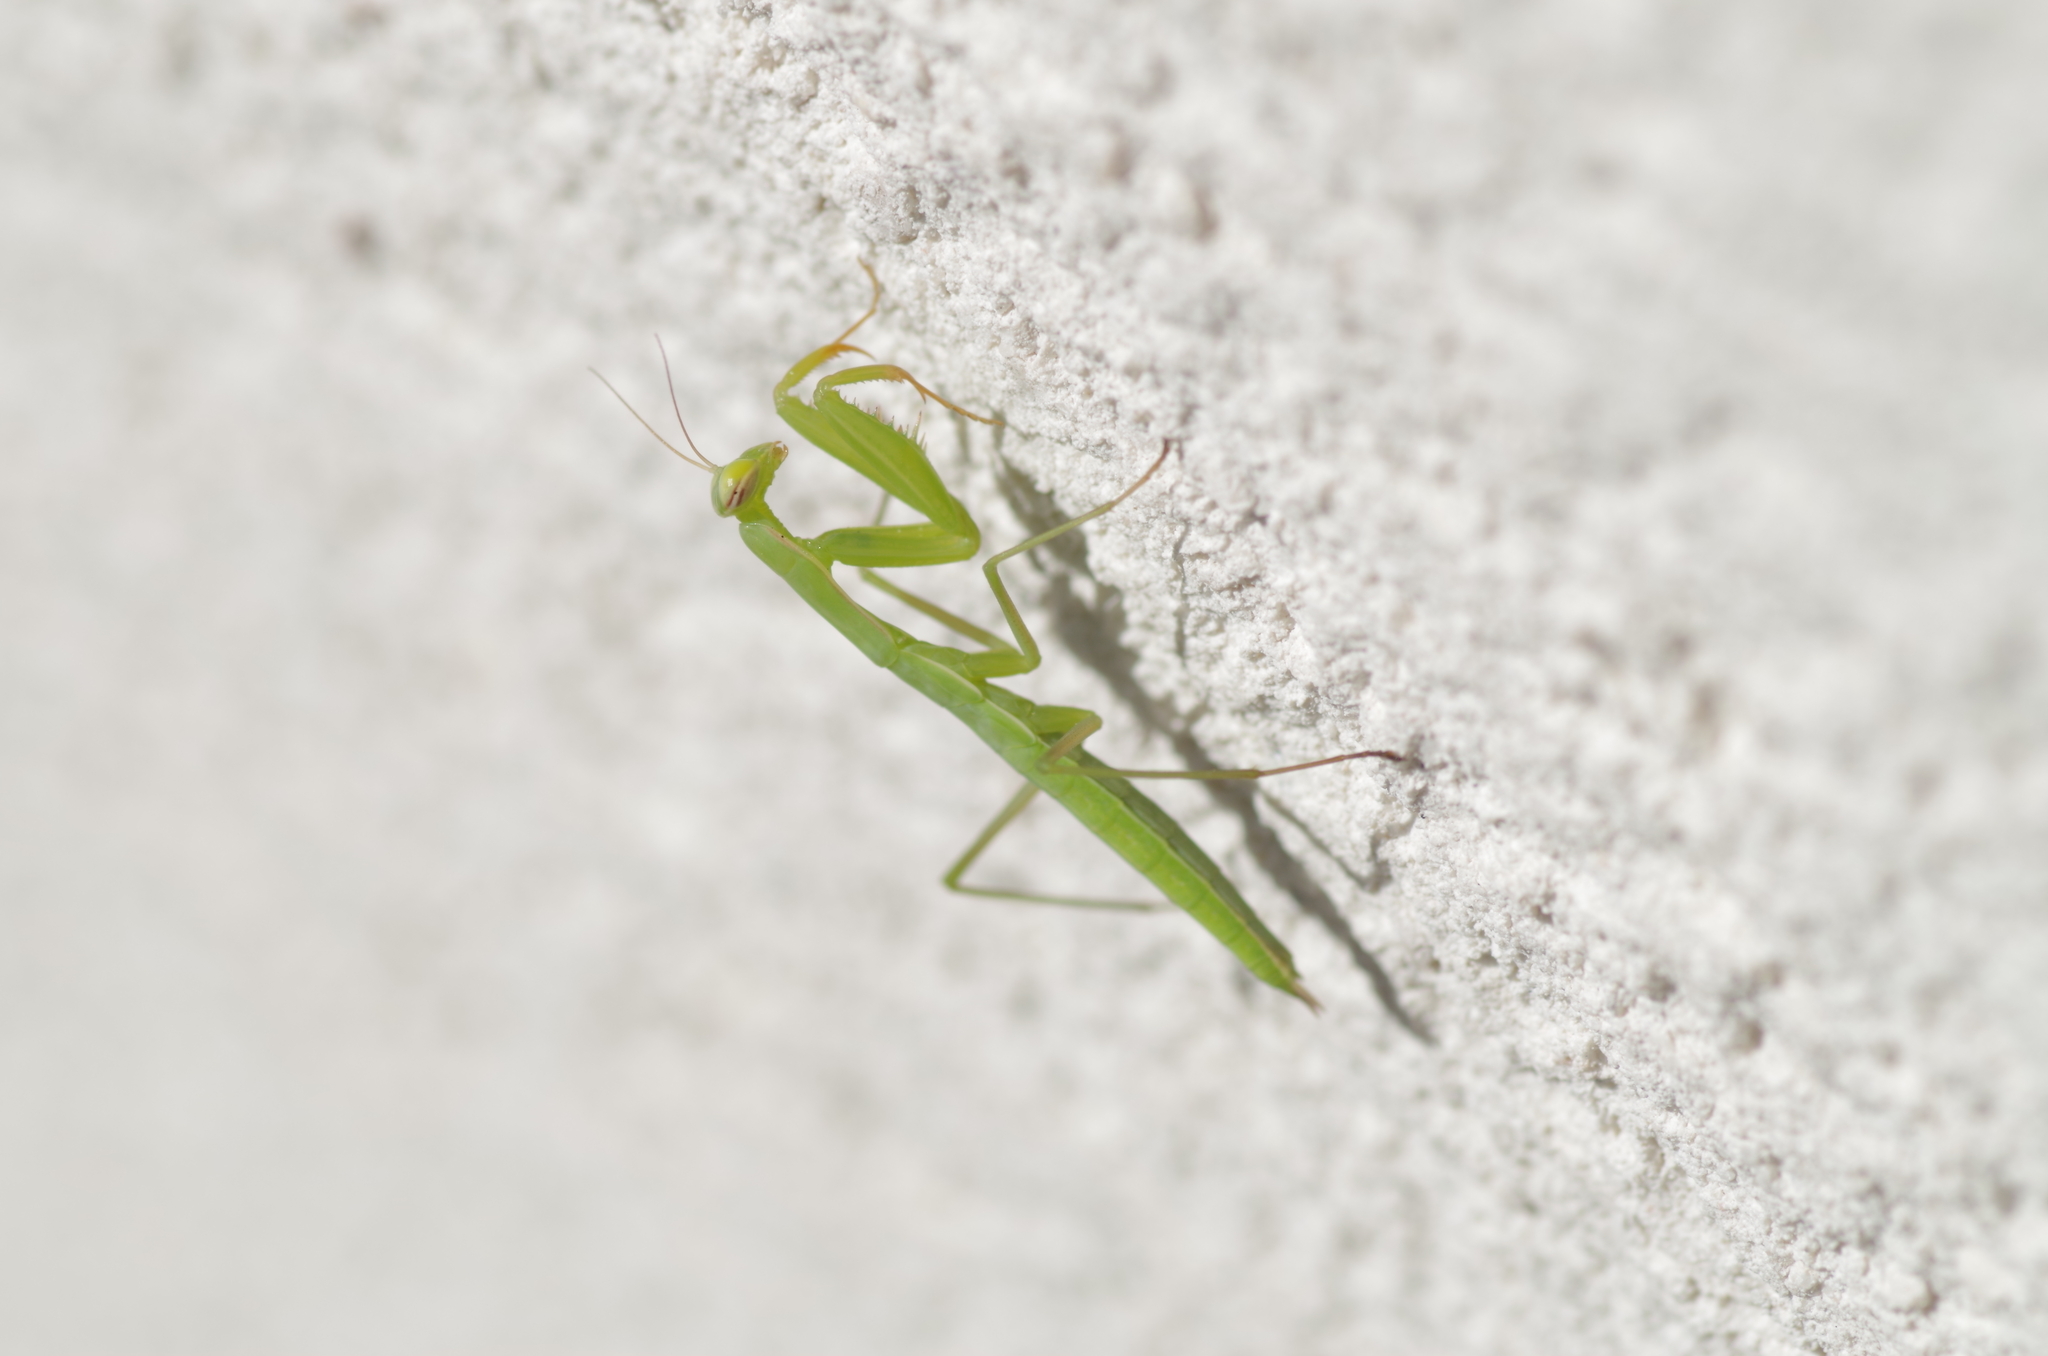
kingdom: Animalia
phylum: Arthropoda
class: Insecta
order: Mantodea
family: Mantidae
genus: Mantis
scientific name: Mantis religiosa
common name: Praying mantis
